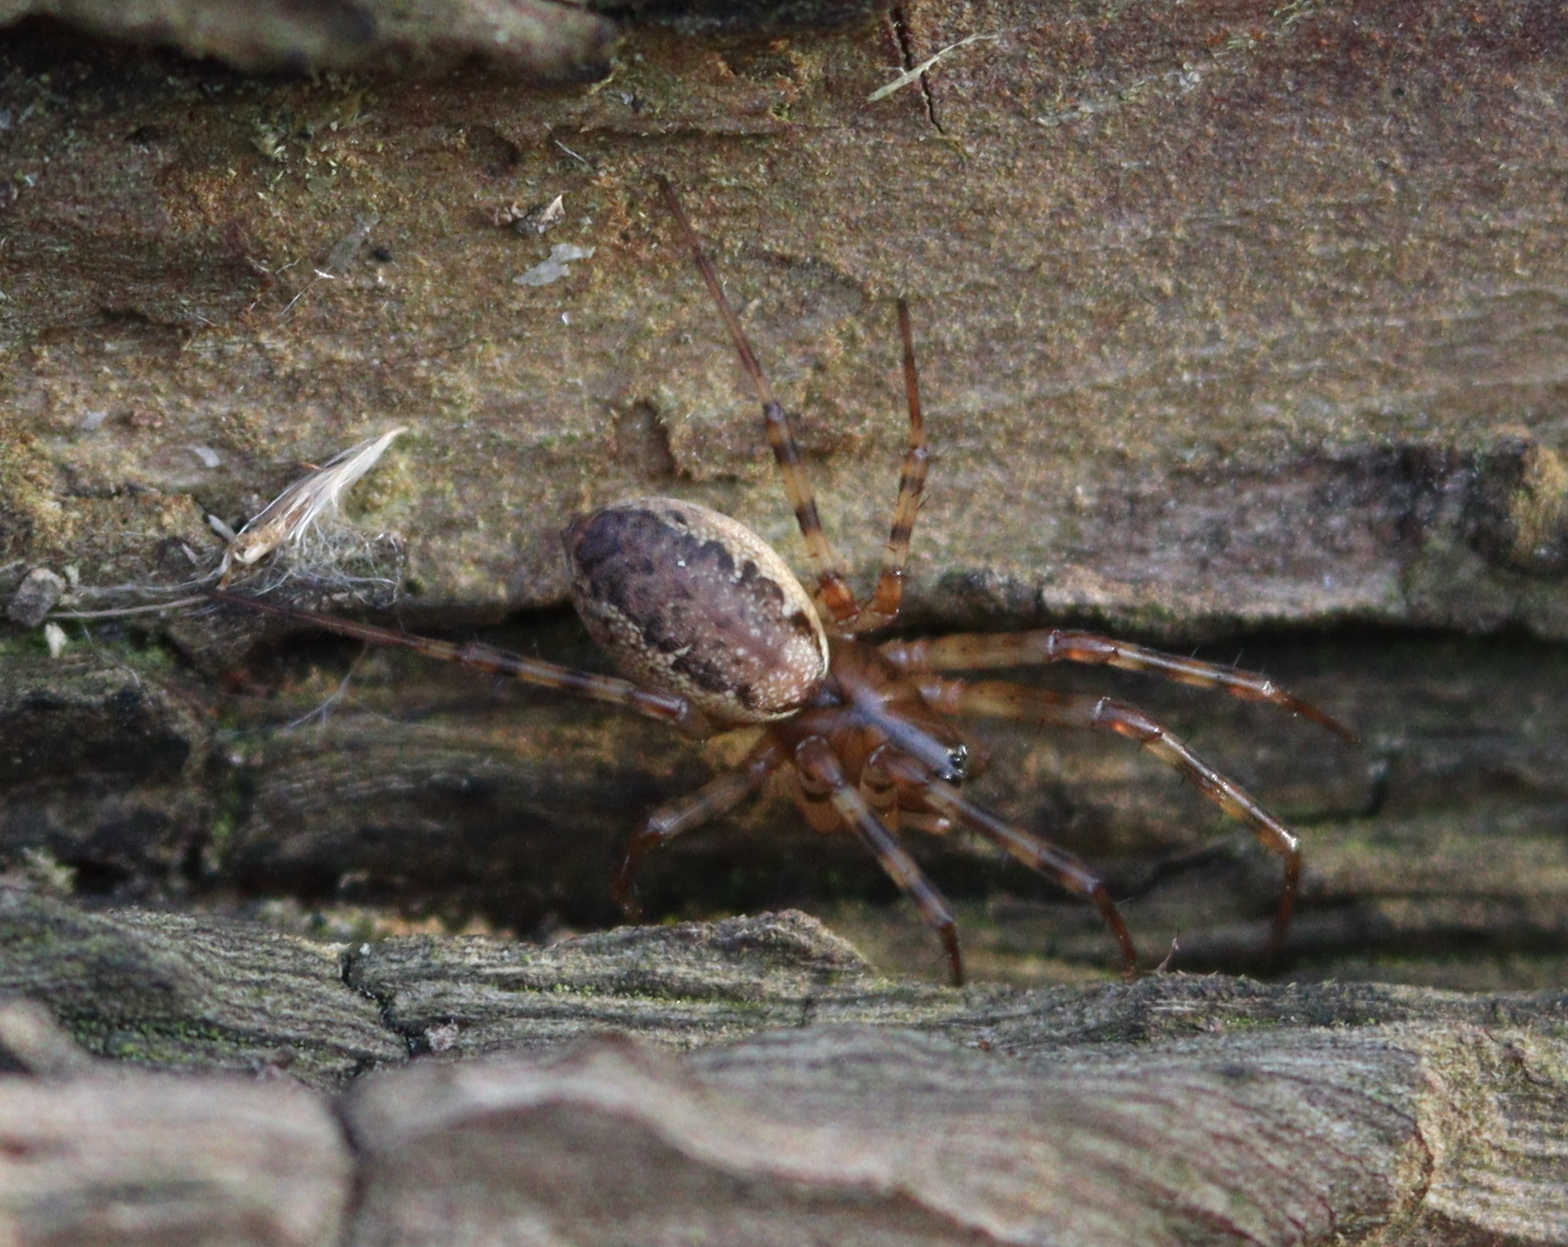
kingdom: Animalia
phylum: Arthropoda
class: Arachnida
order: Araneae
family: Linyphiidae
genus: Neriene
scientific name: Neriene montana
